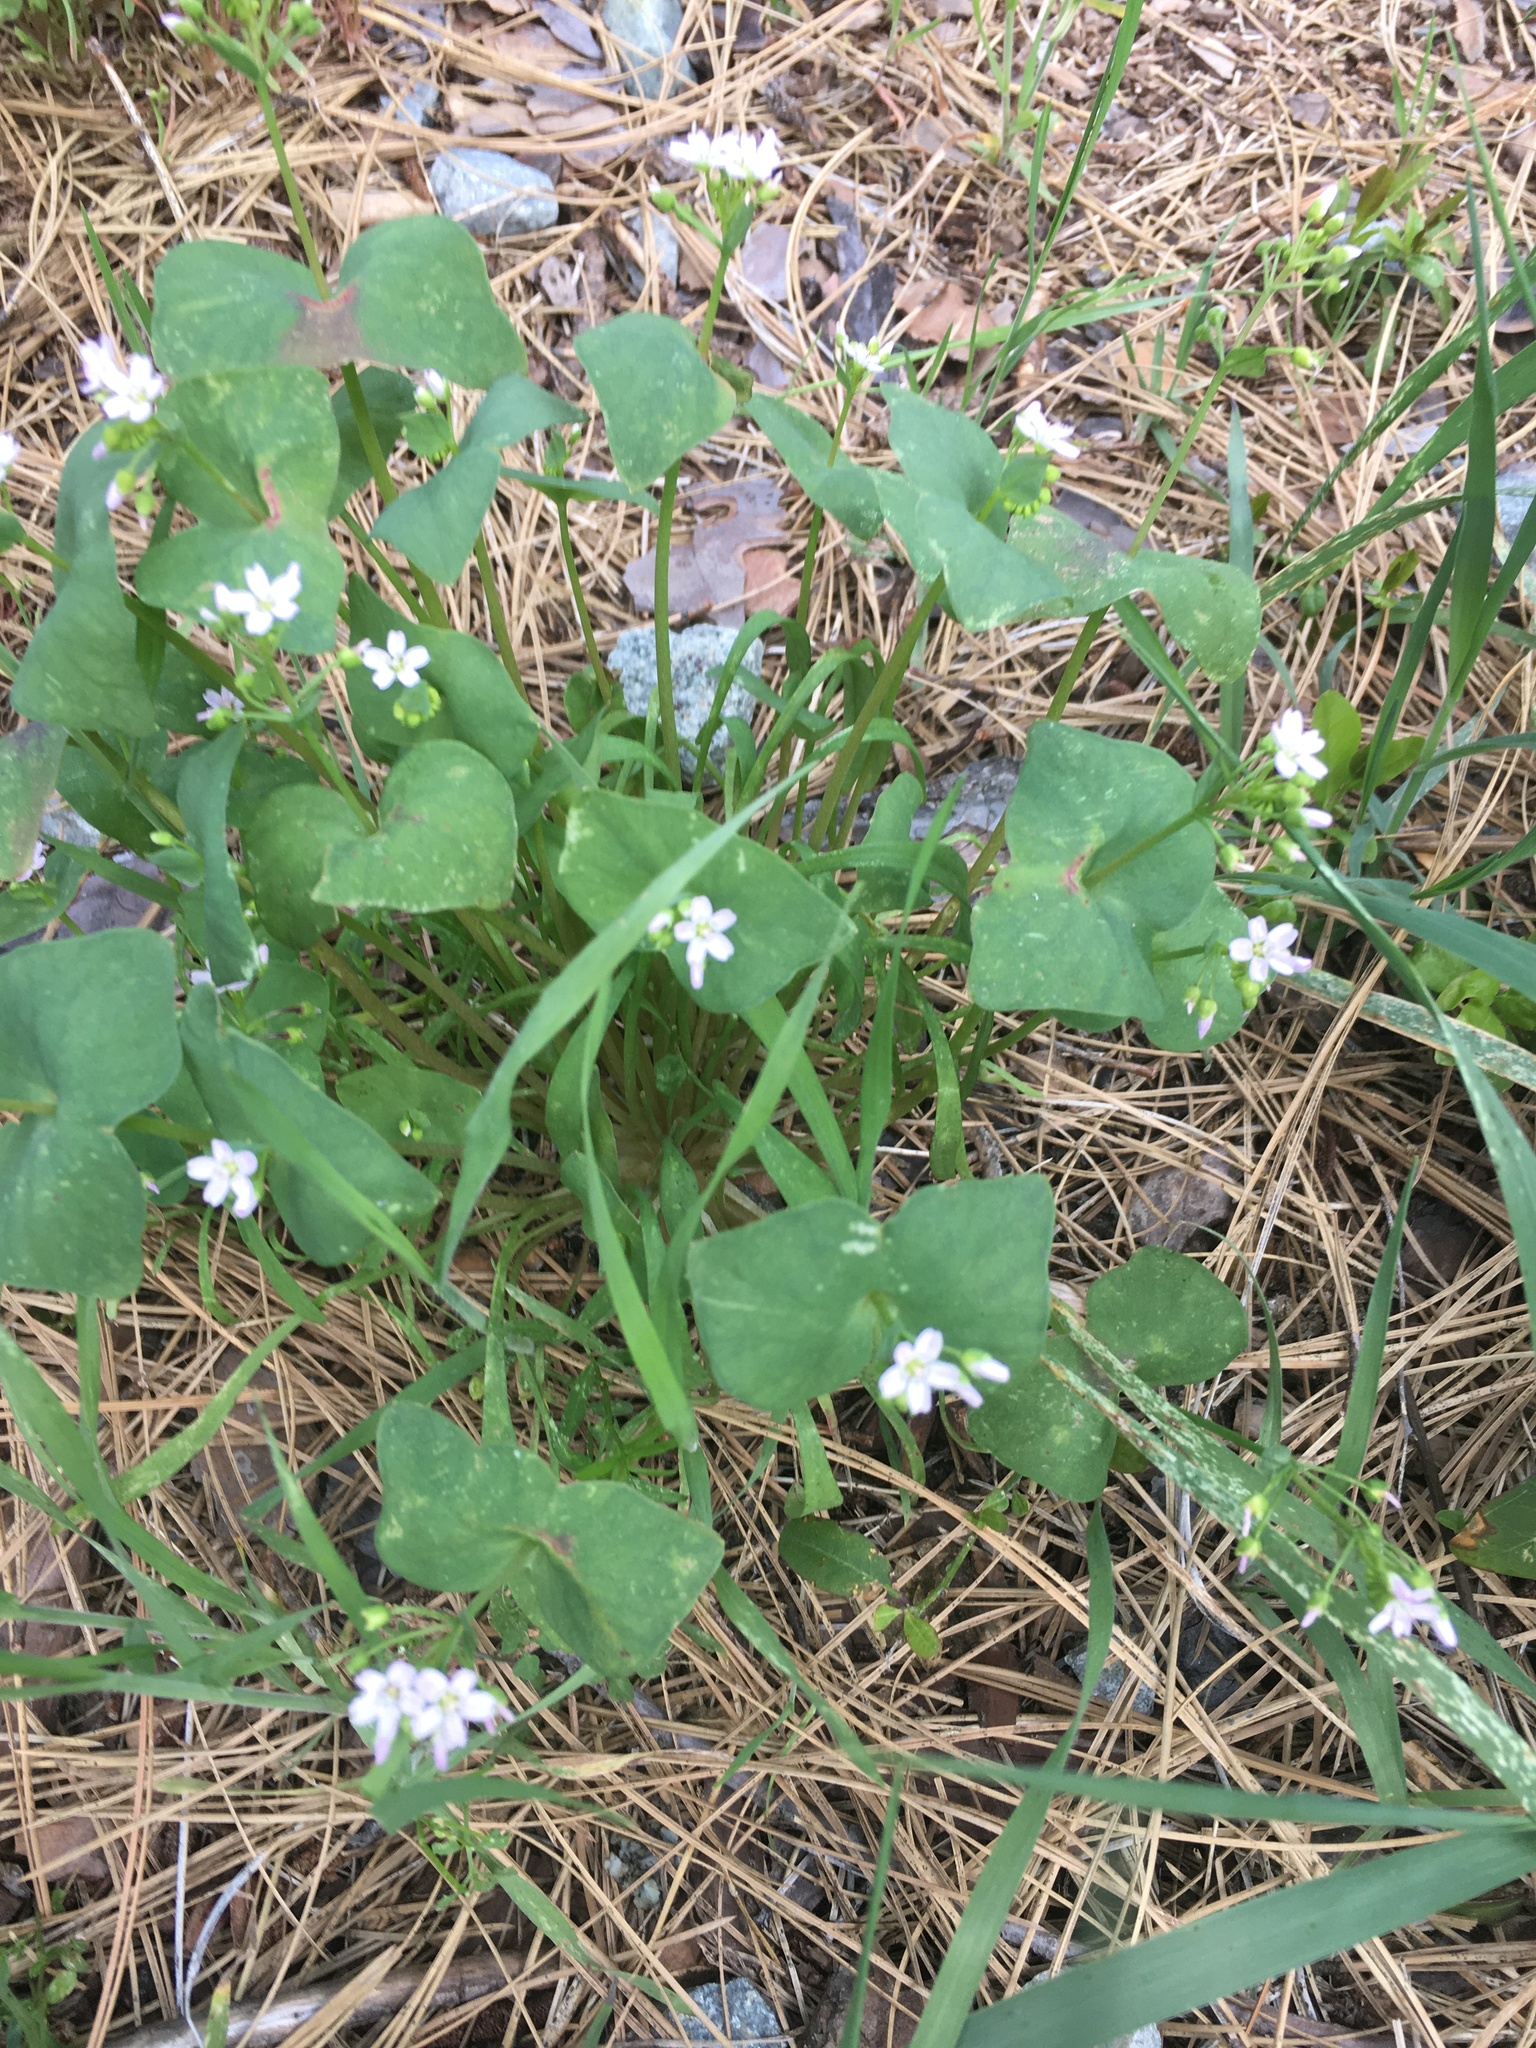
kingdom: Plantae
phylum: Tracheophyta
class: Magnoliopsida
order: Caryophyllales
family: Montiaceae
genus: Claytonia
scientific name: Claytonia parviflora
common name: Indian-lettuce
